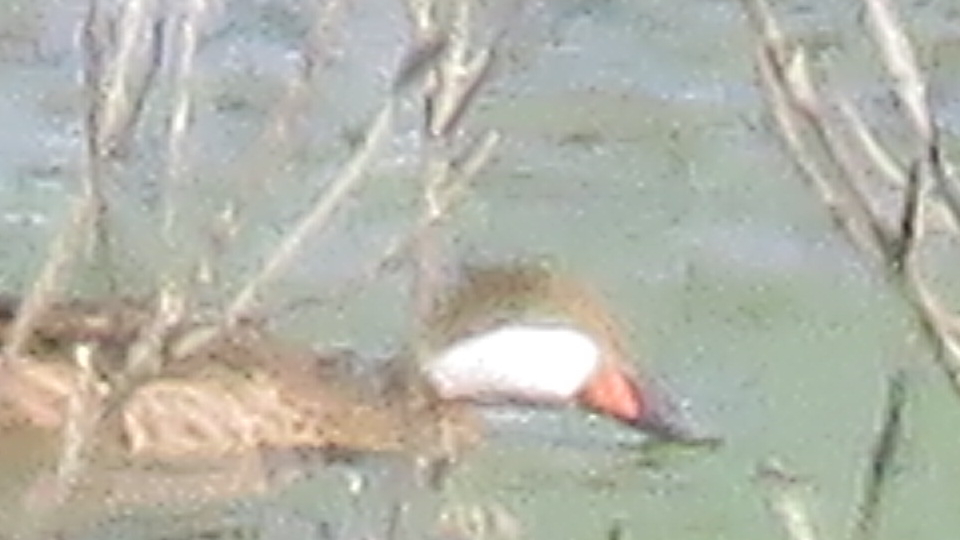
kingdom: Animalia
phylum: Chordata
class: Aves
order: Anseriformes
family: Anatidae
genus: Anas
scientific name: Anas bahamensis
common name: White-cheeked pintail
